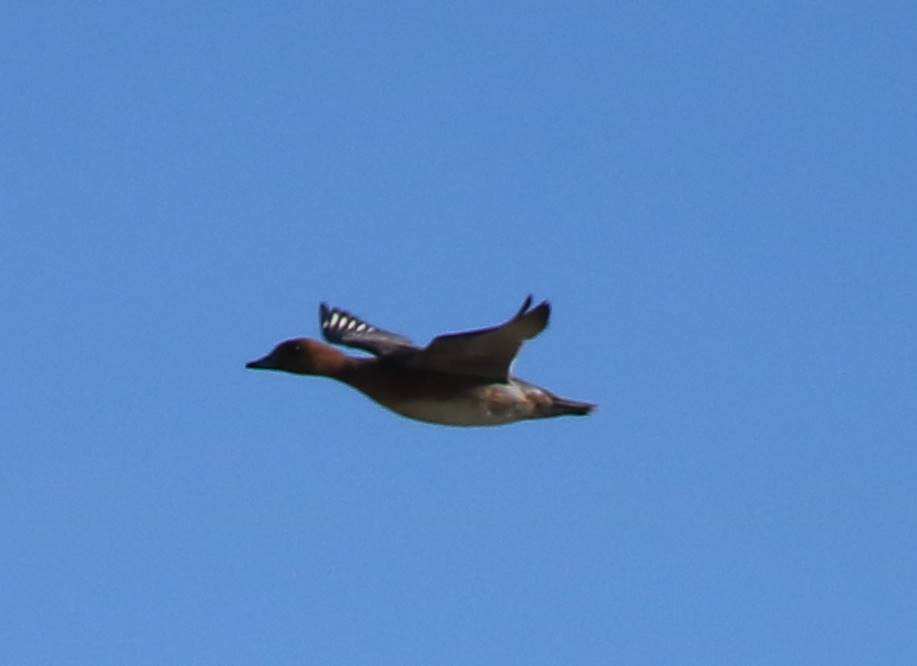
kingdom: Animalia
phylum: Chordata
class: Aves
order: Anseriformes
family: Anatidae
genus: Mareca
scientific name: Mareca penelope
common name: Eurasian wigeon
